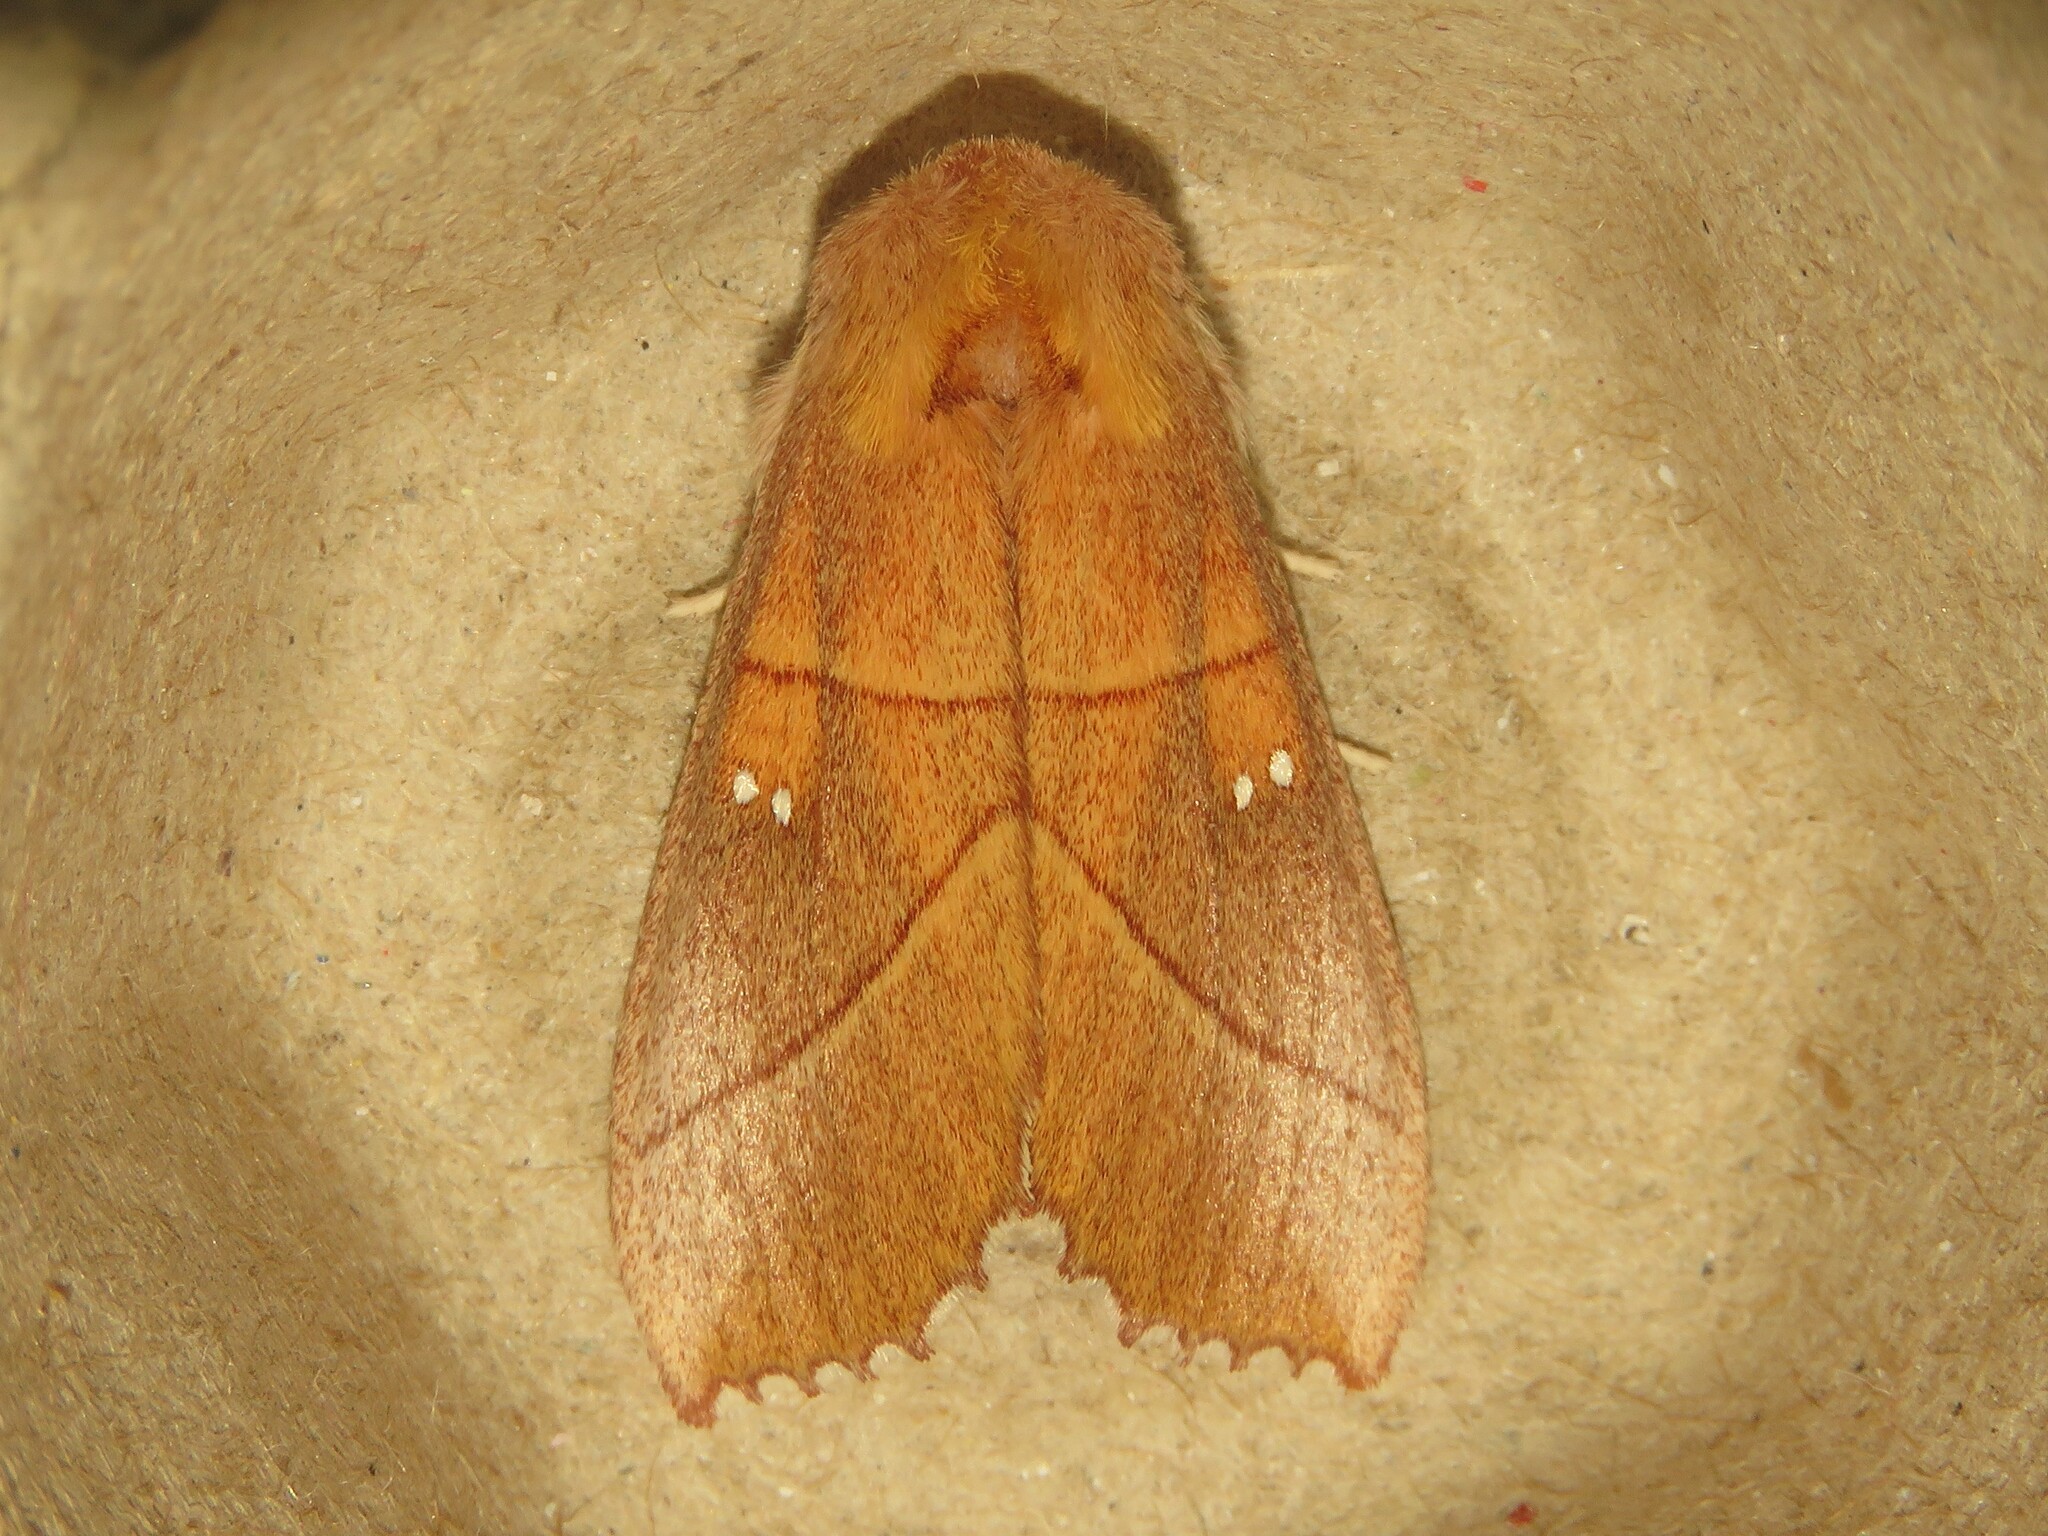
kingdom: Animalia
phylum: Arthropoda
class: Insecta
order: Lepidoptera
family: Notodontidae
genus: Nadata
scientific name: Nadata gibbosa
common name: White-dotted prominent
